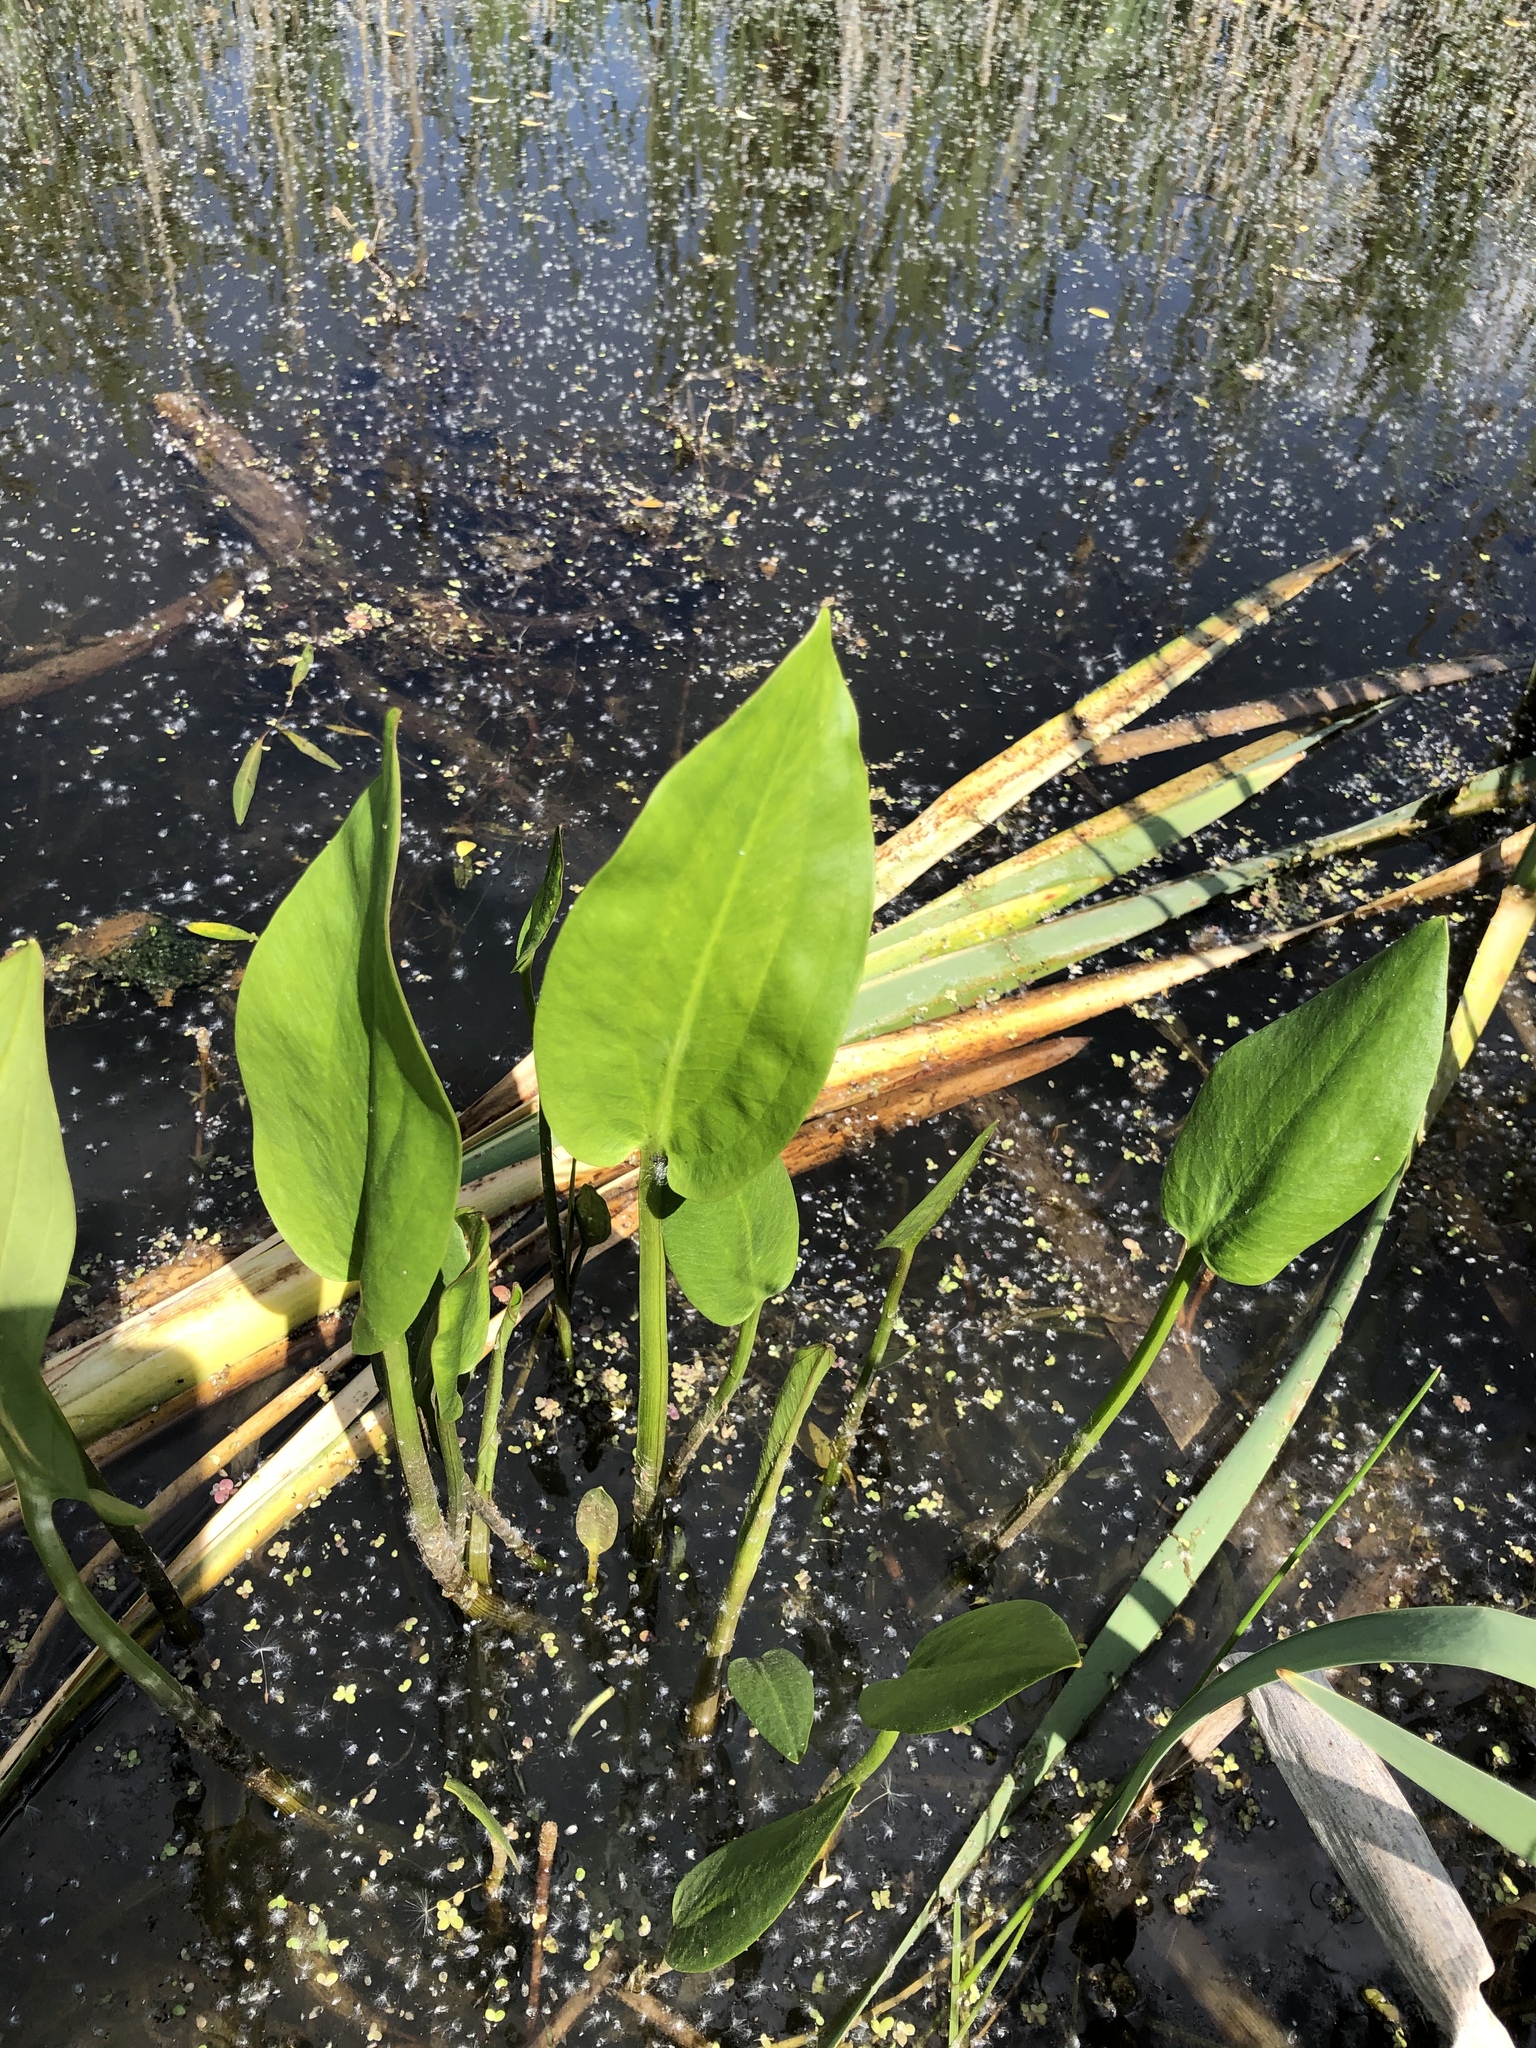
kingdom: Plantae
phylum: Tracheophyta
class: Liliopsida
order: Alismatales
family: Alismataceae
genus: Alisma
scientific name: Alisma plantago-aquatica
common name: Water-plantain
